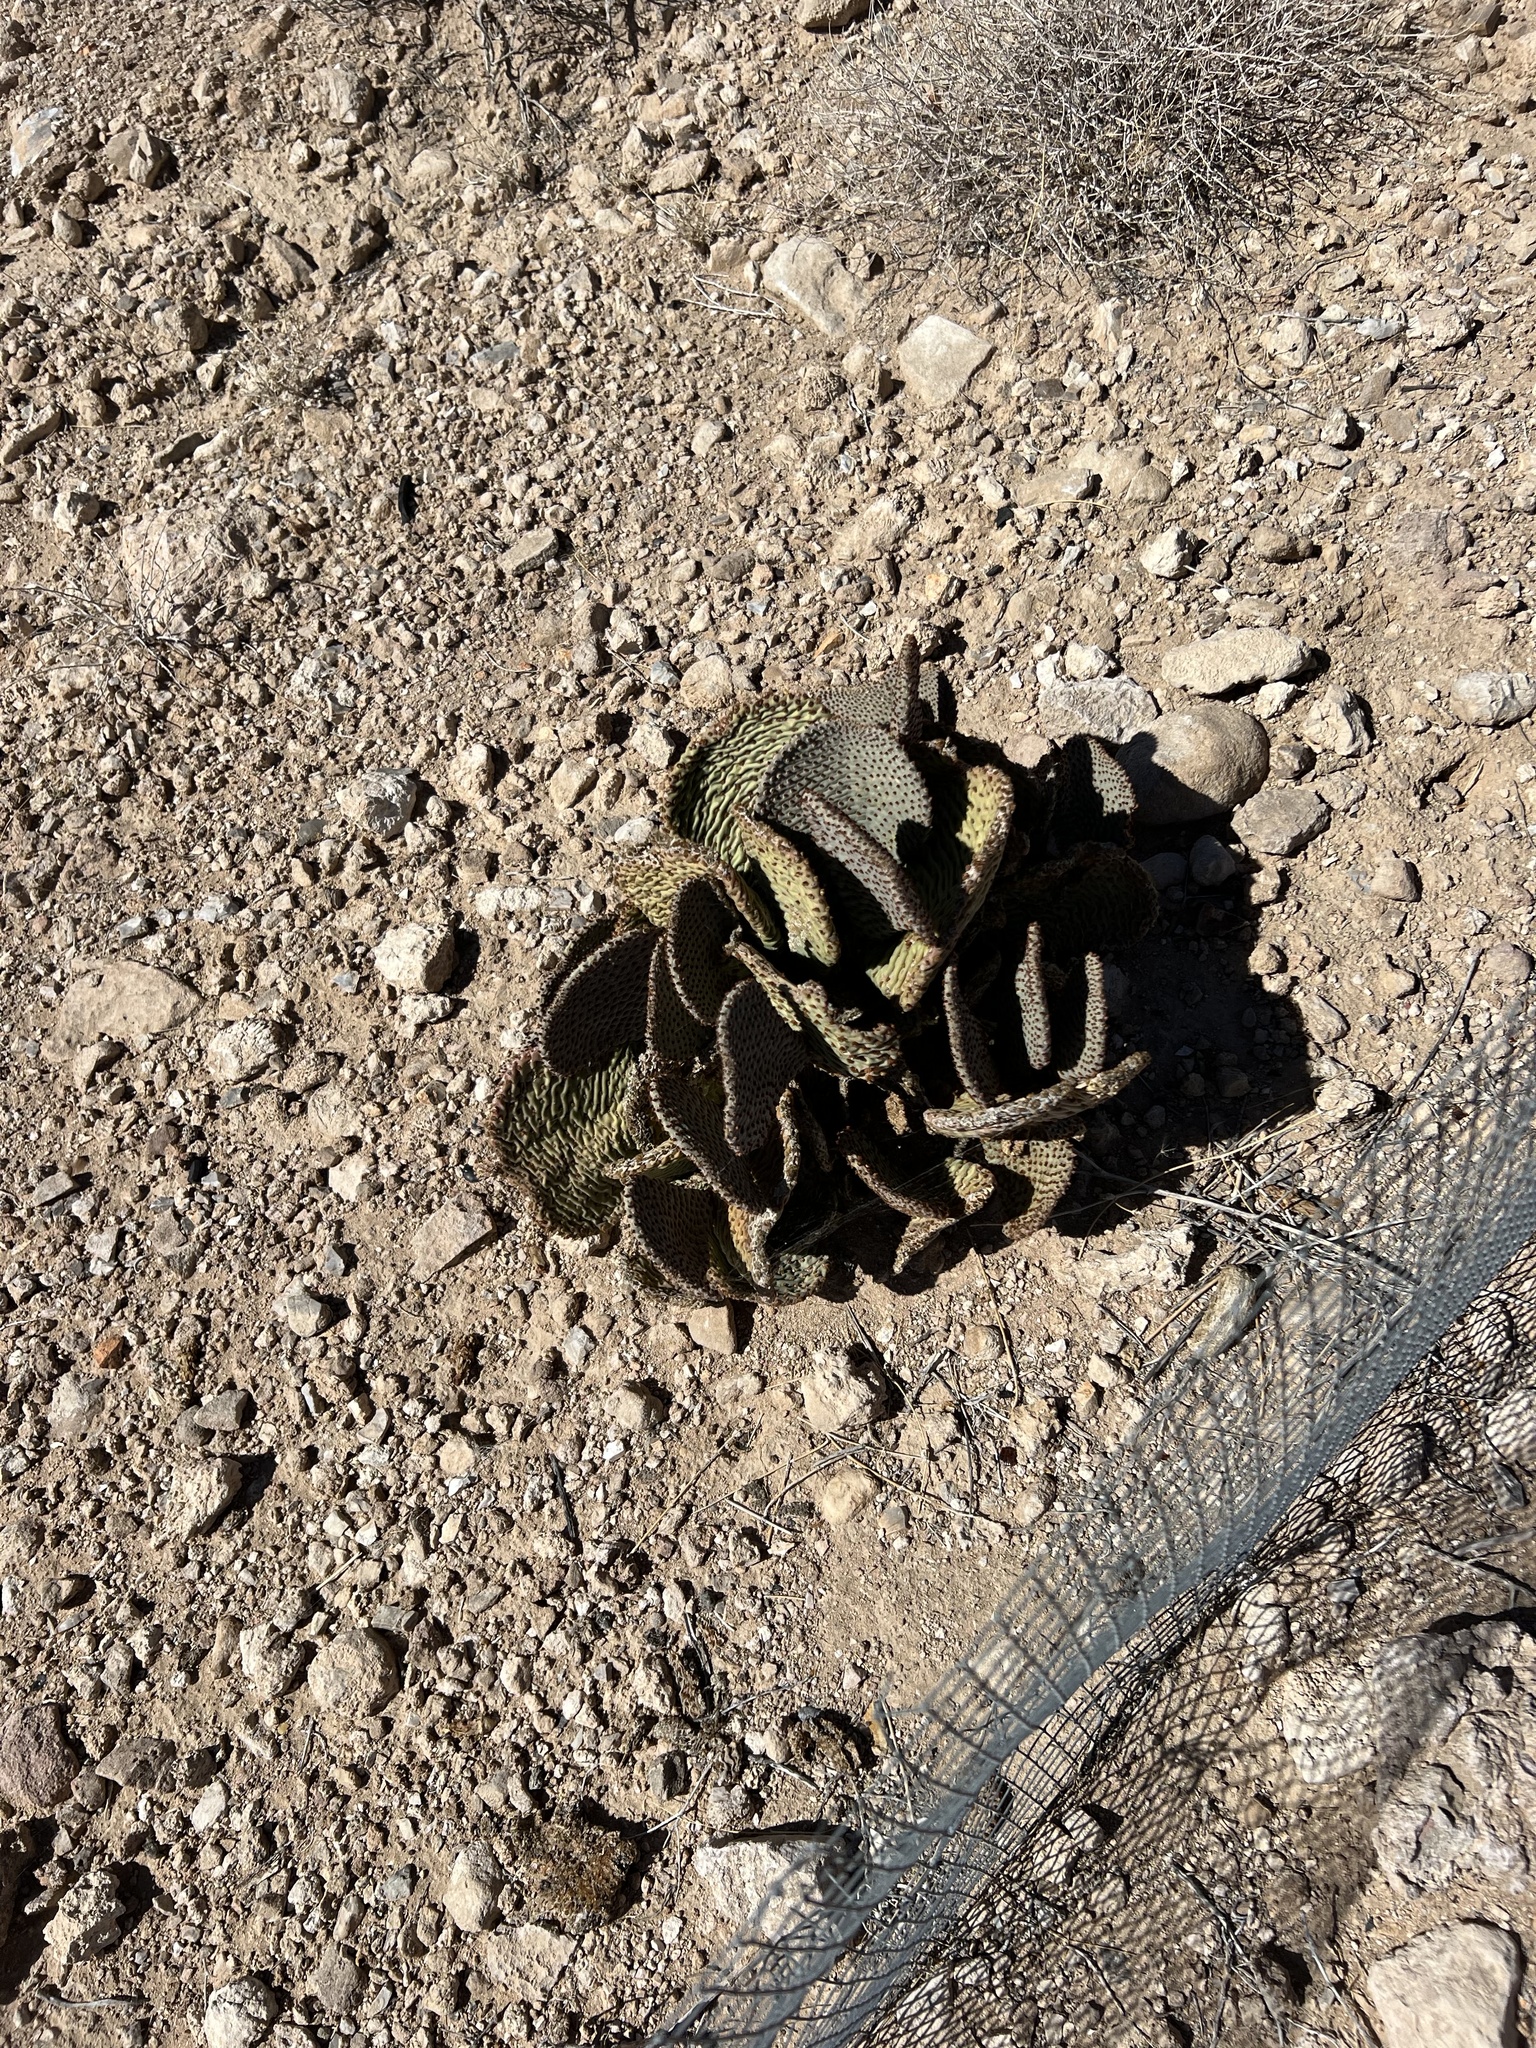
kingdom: Plantae
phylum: Tracheophyta
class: Magnoliopsida
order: Caryophyllales
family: Cactaceae
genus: Opuntia
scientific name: Opuntia basilaris
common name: Beavertail prickly-pear
